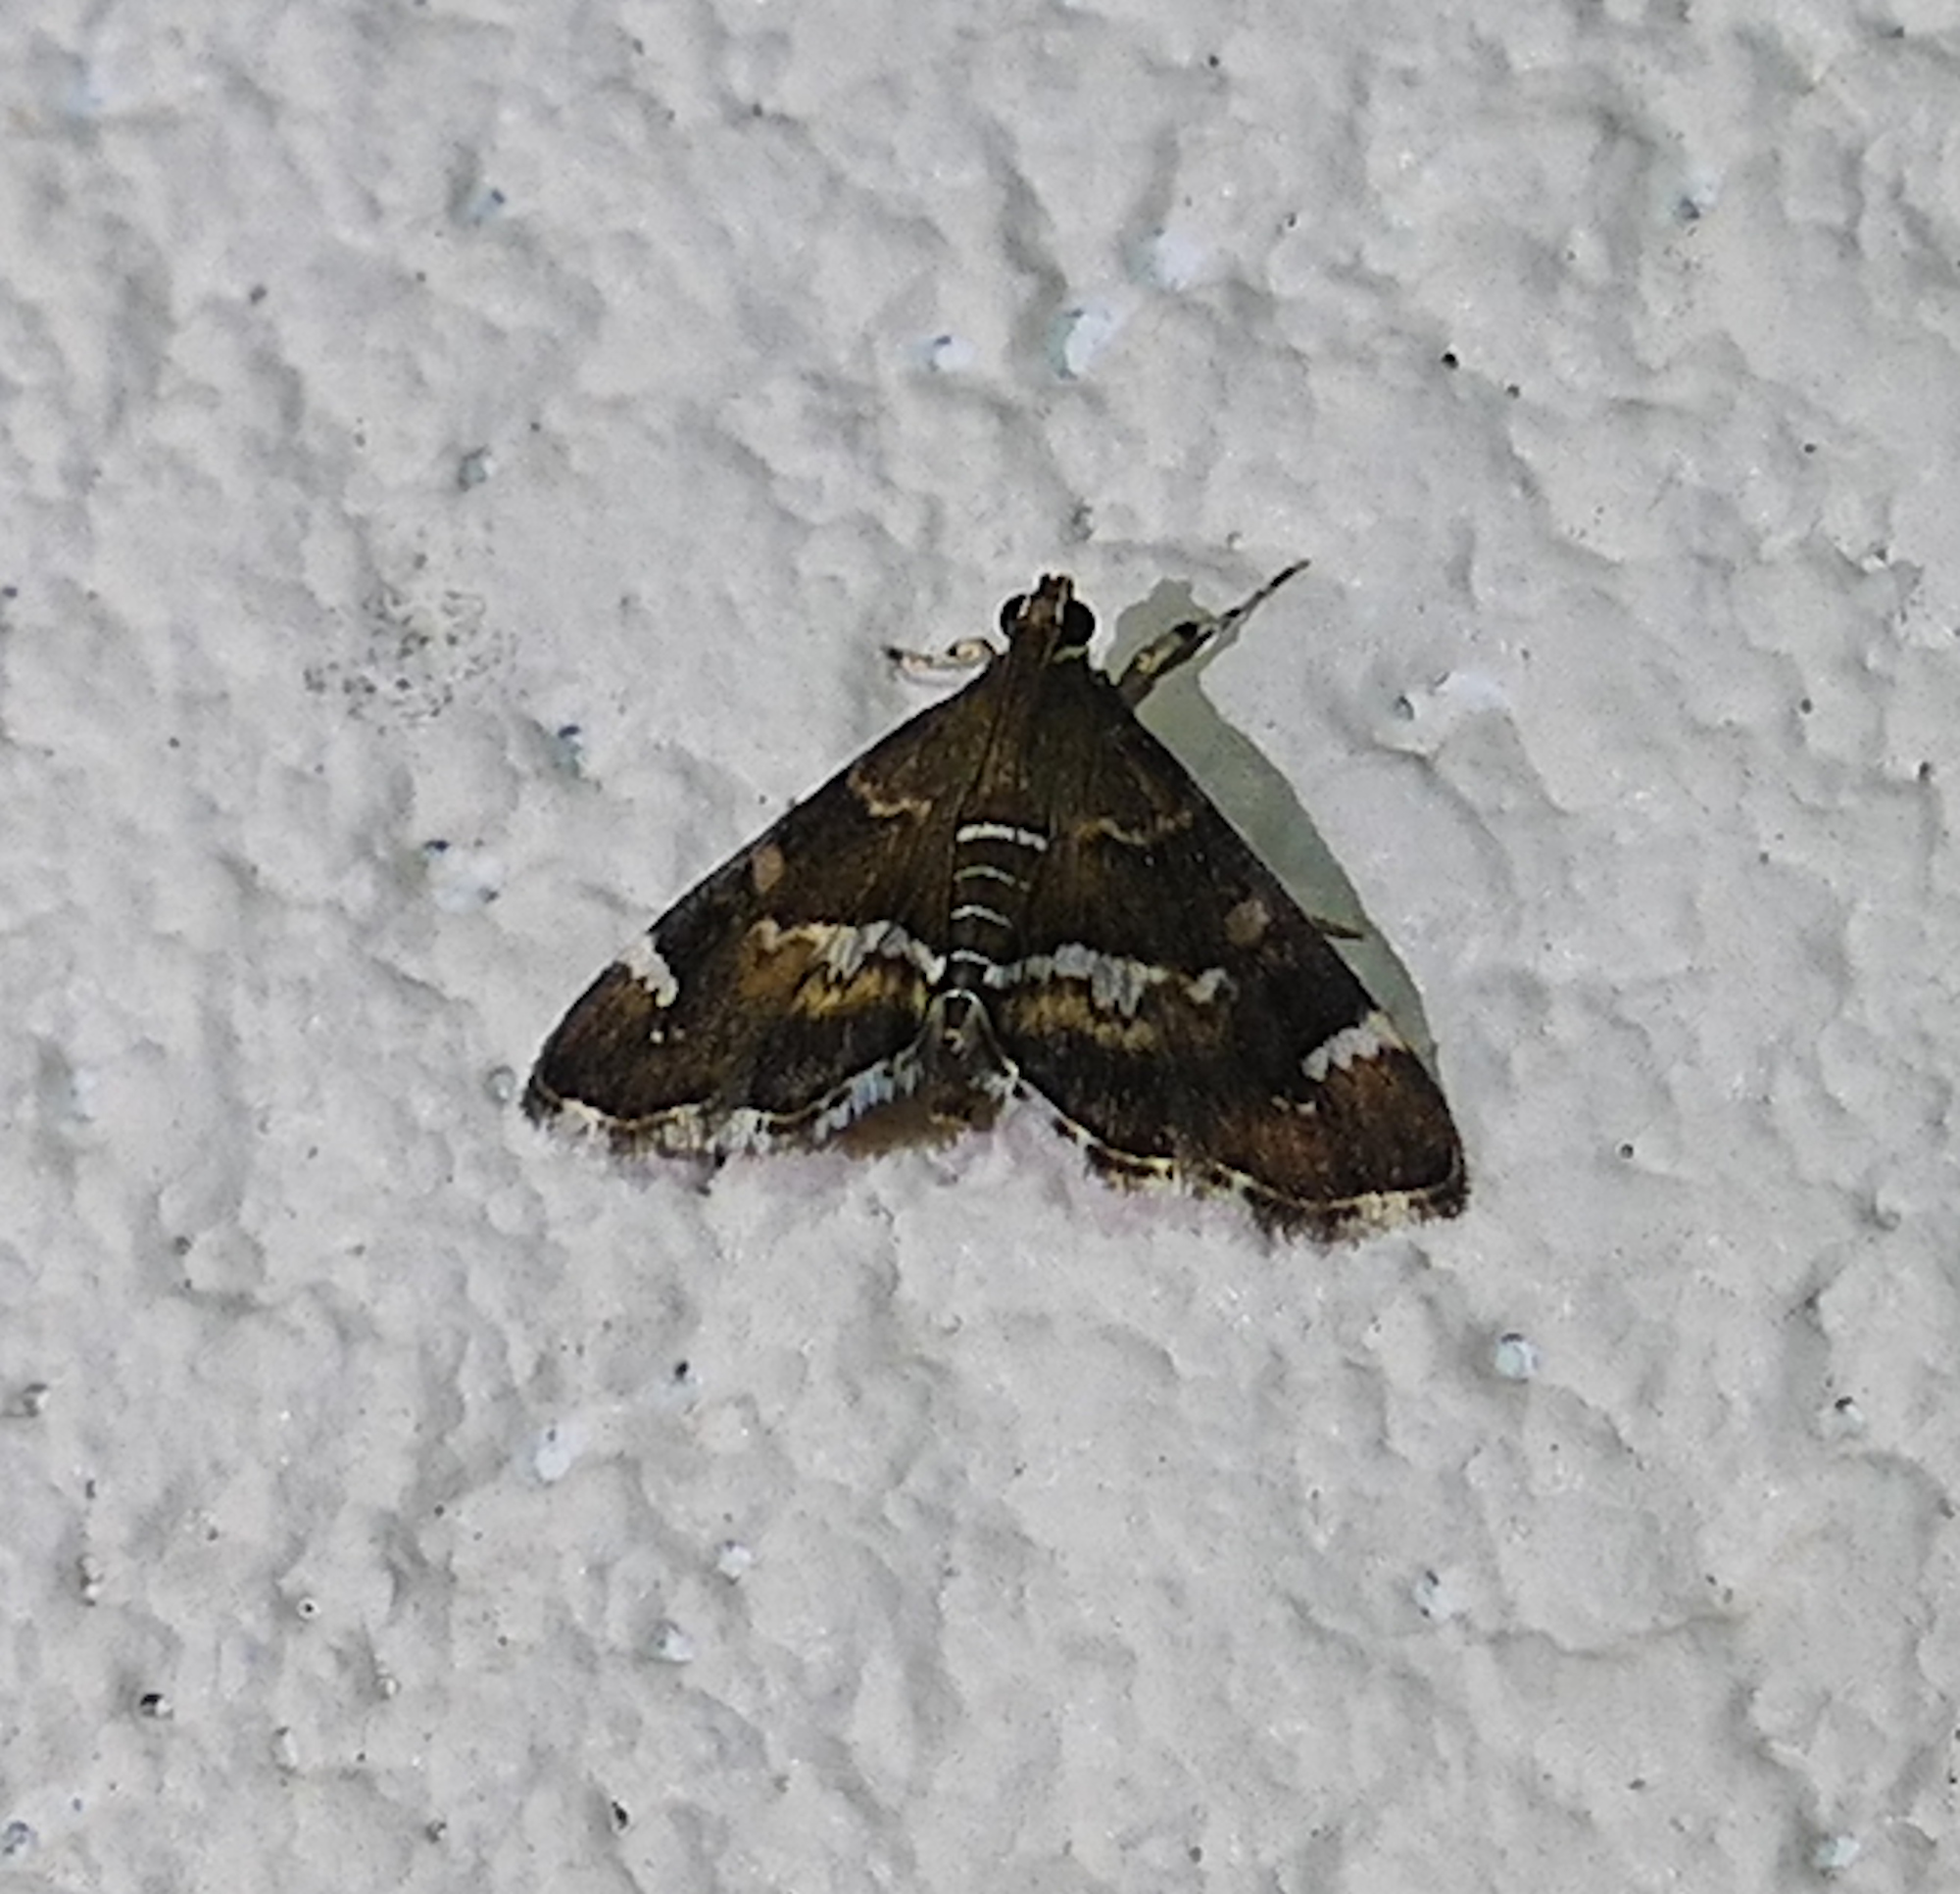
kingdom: Animalia
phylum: Arthropoda
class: Insecta
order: Lepidoptera
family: Crambidae
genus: Hymenia
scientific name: Hymenia perspectalis
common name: Spotted beet webworm
